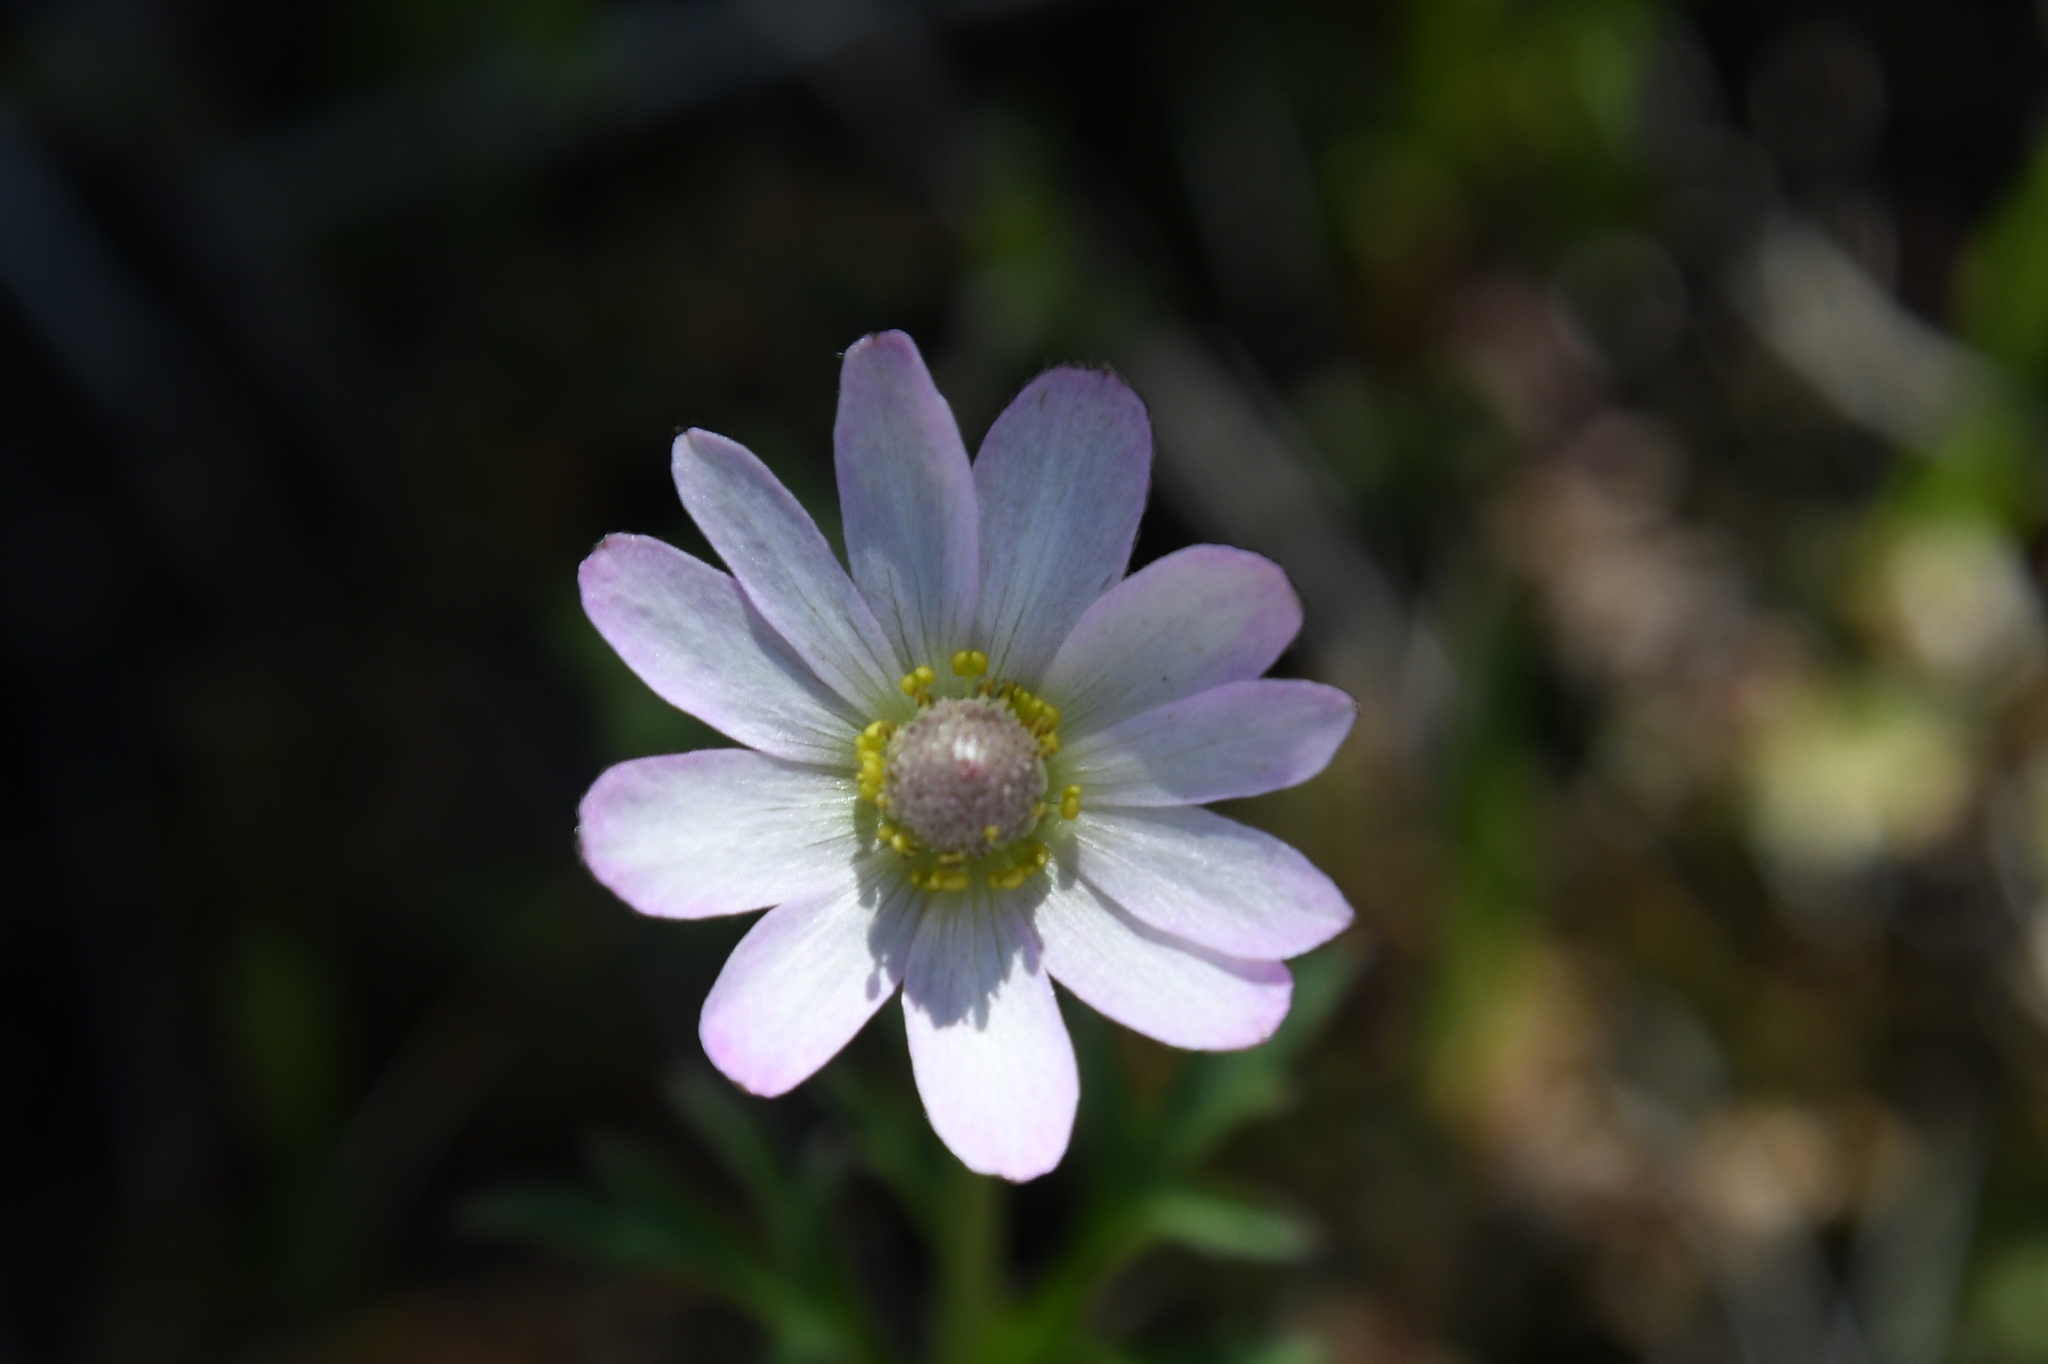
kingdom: Plantae
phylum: Tracheophyta
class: Magnoliopsida
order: Ranunculales
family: Ranunculaceae
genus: Anemone
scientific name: Anemone tuberosa
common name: Desert anemone
